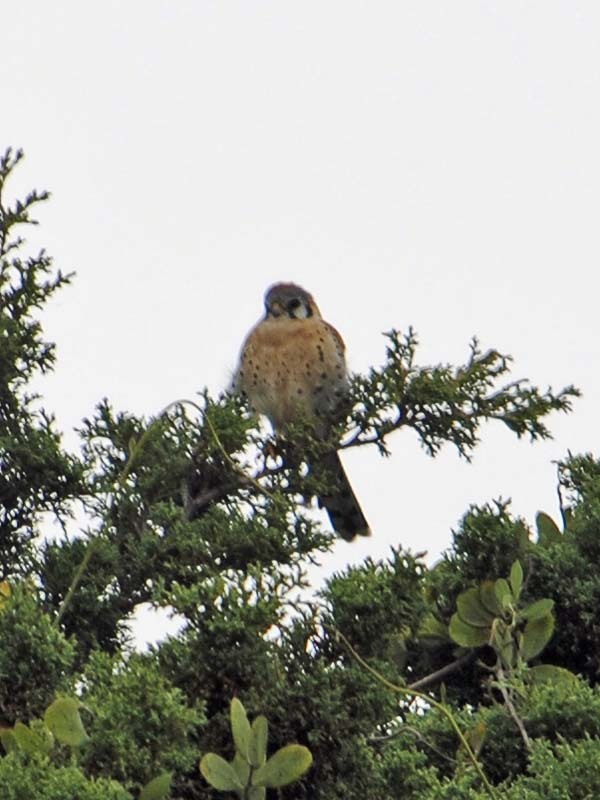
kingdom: Animalia
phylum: Chordata
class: Aves
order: Falconiformes
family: Falconidae
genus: Falco
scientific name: Falco sparverius
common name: American kestrel
